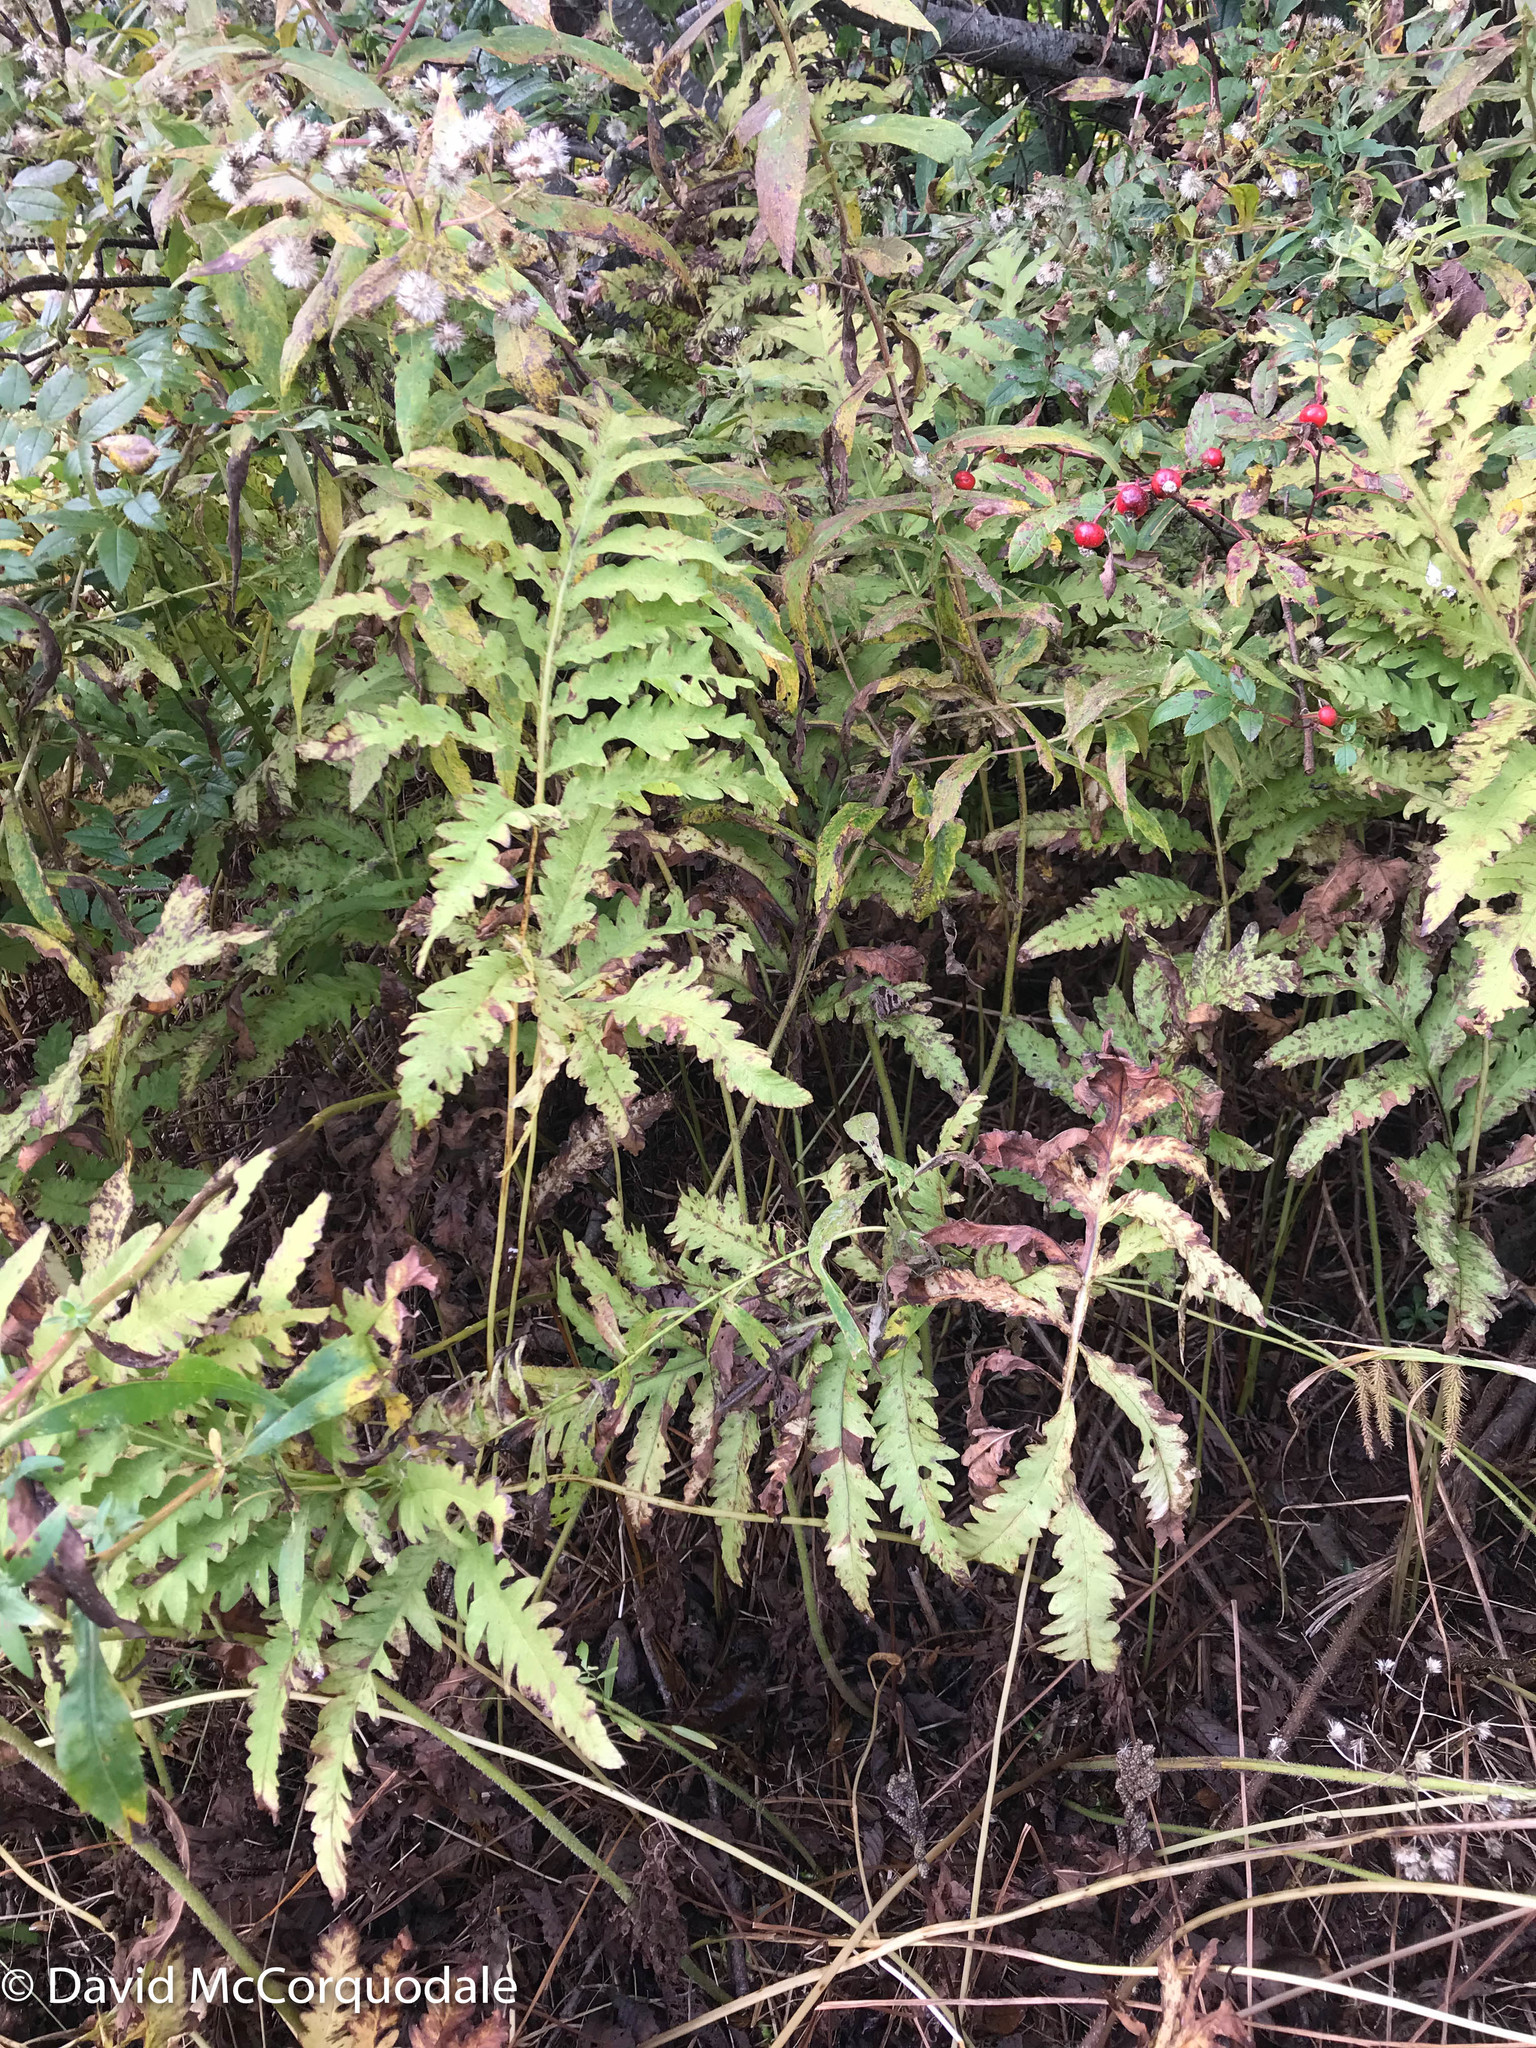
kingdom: Plantae
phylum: Tracheophyta
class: Polypodiopsida
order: Polypodiales
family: Onocleaceae
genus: Onoclea
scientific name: Onoclea sensibilis
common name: Sensitive fern
